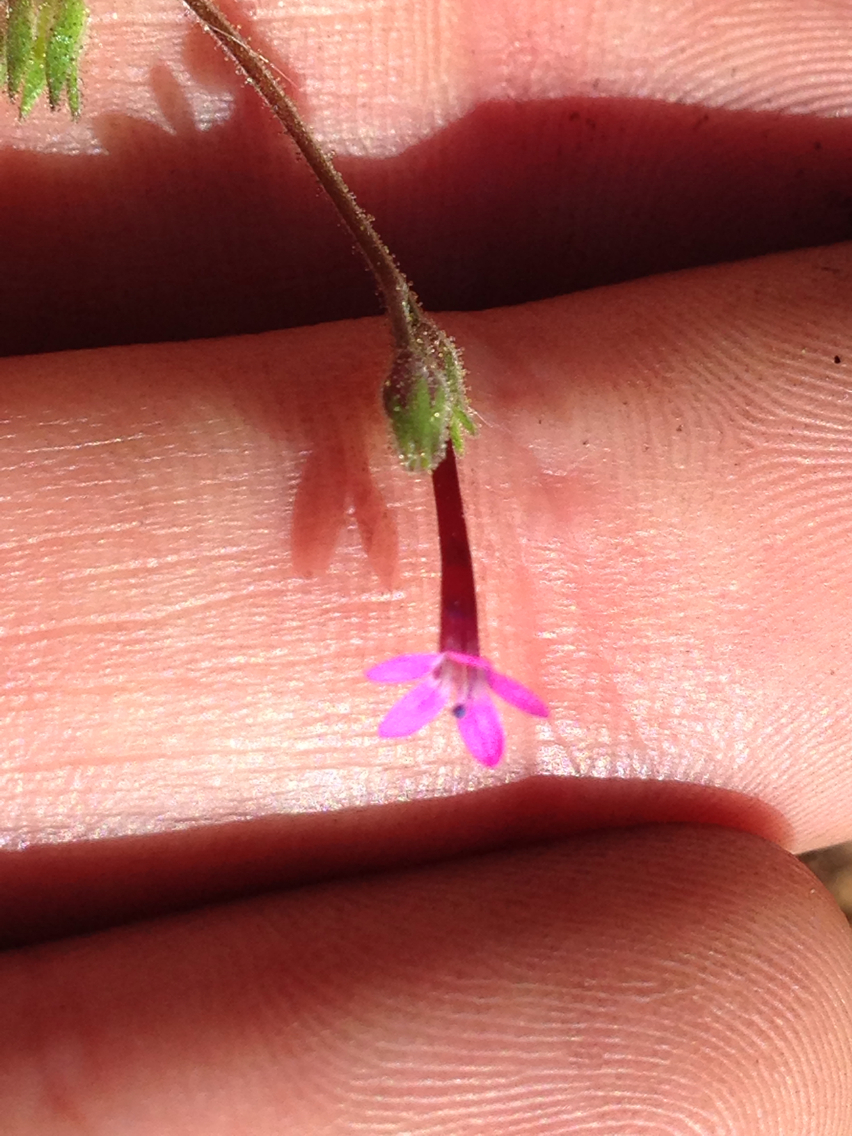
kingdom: Plantae
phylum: Tracheophyta
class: Magnoliopsida
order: Ericales
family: Polemoniaceae
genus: Allophyllum
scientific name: Allophyllum divaricatum
